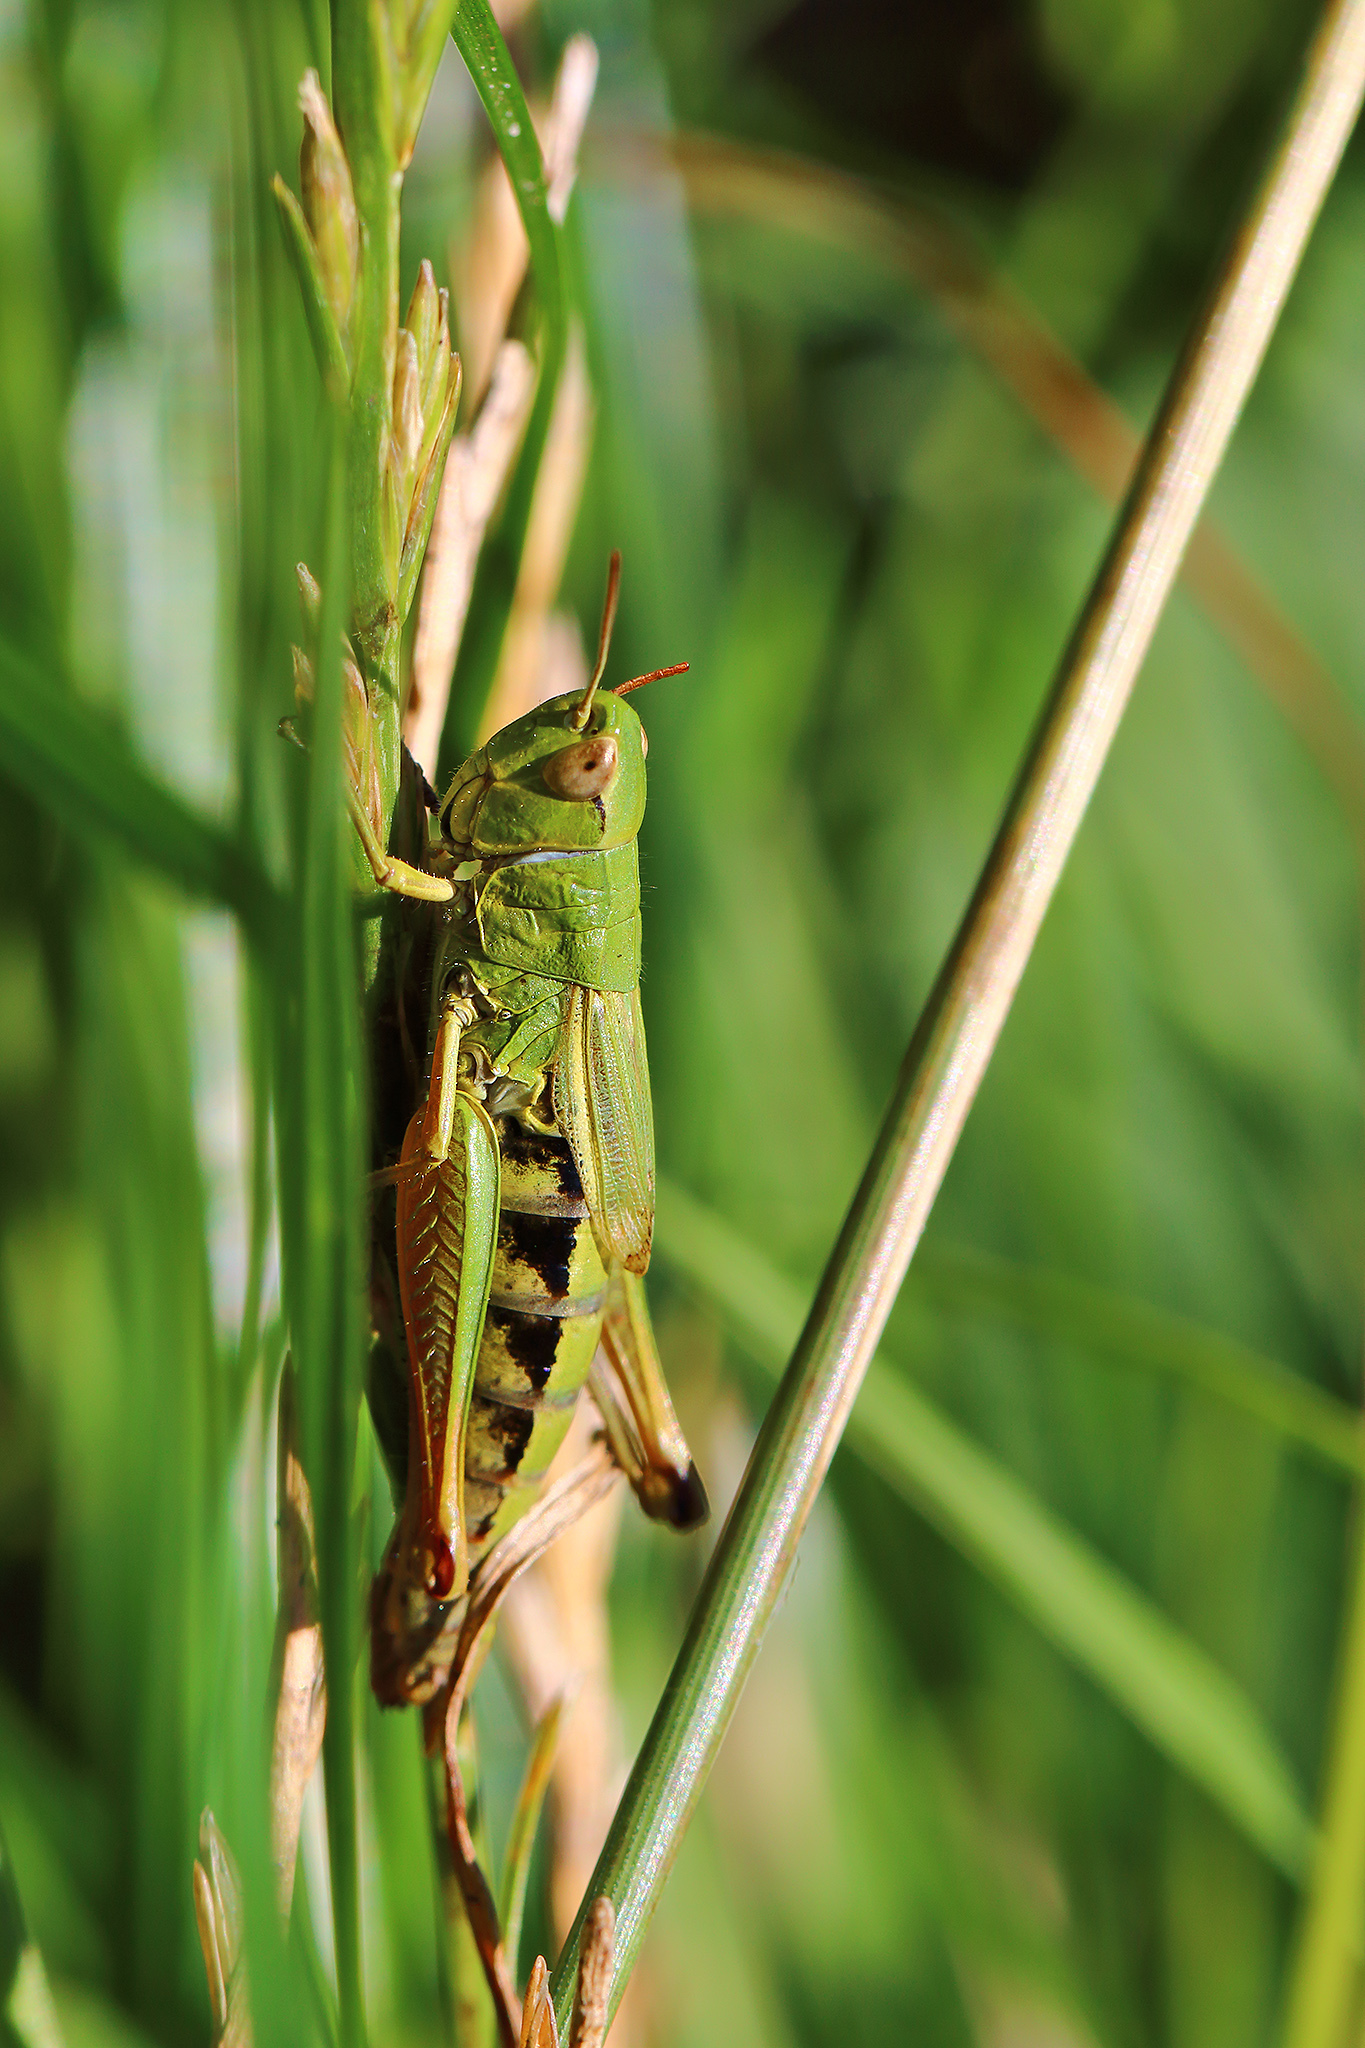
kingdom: Animalia
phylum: Arthropoda
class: Insecta
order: Orthoptera
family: Acrididae
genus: Pseudochorthippus
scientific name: Pseudochorthippus parallelus
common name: Meadow grasshopper
